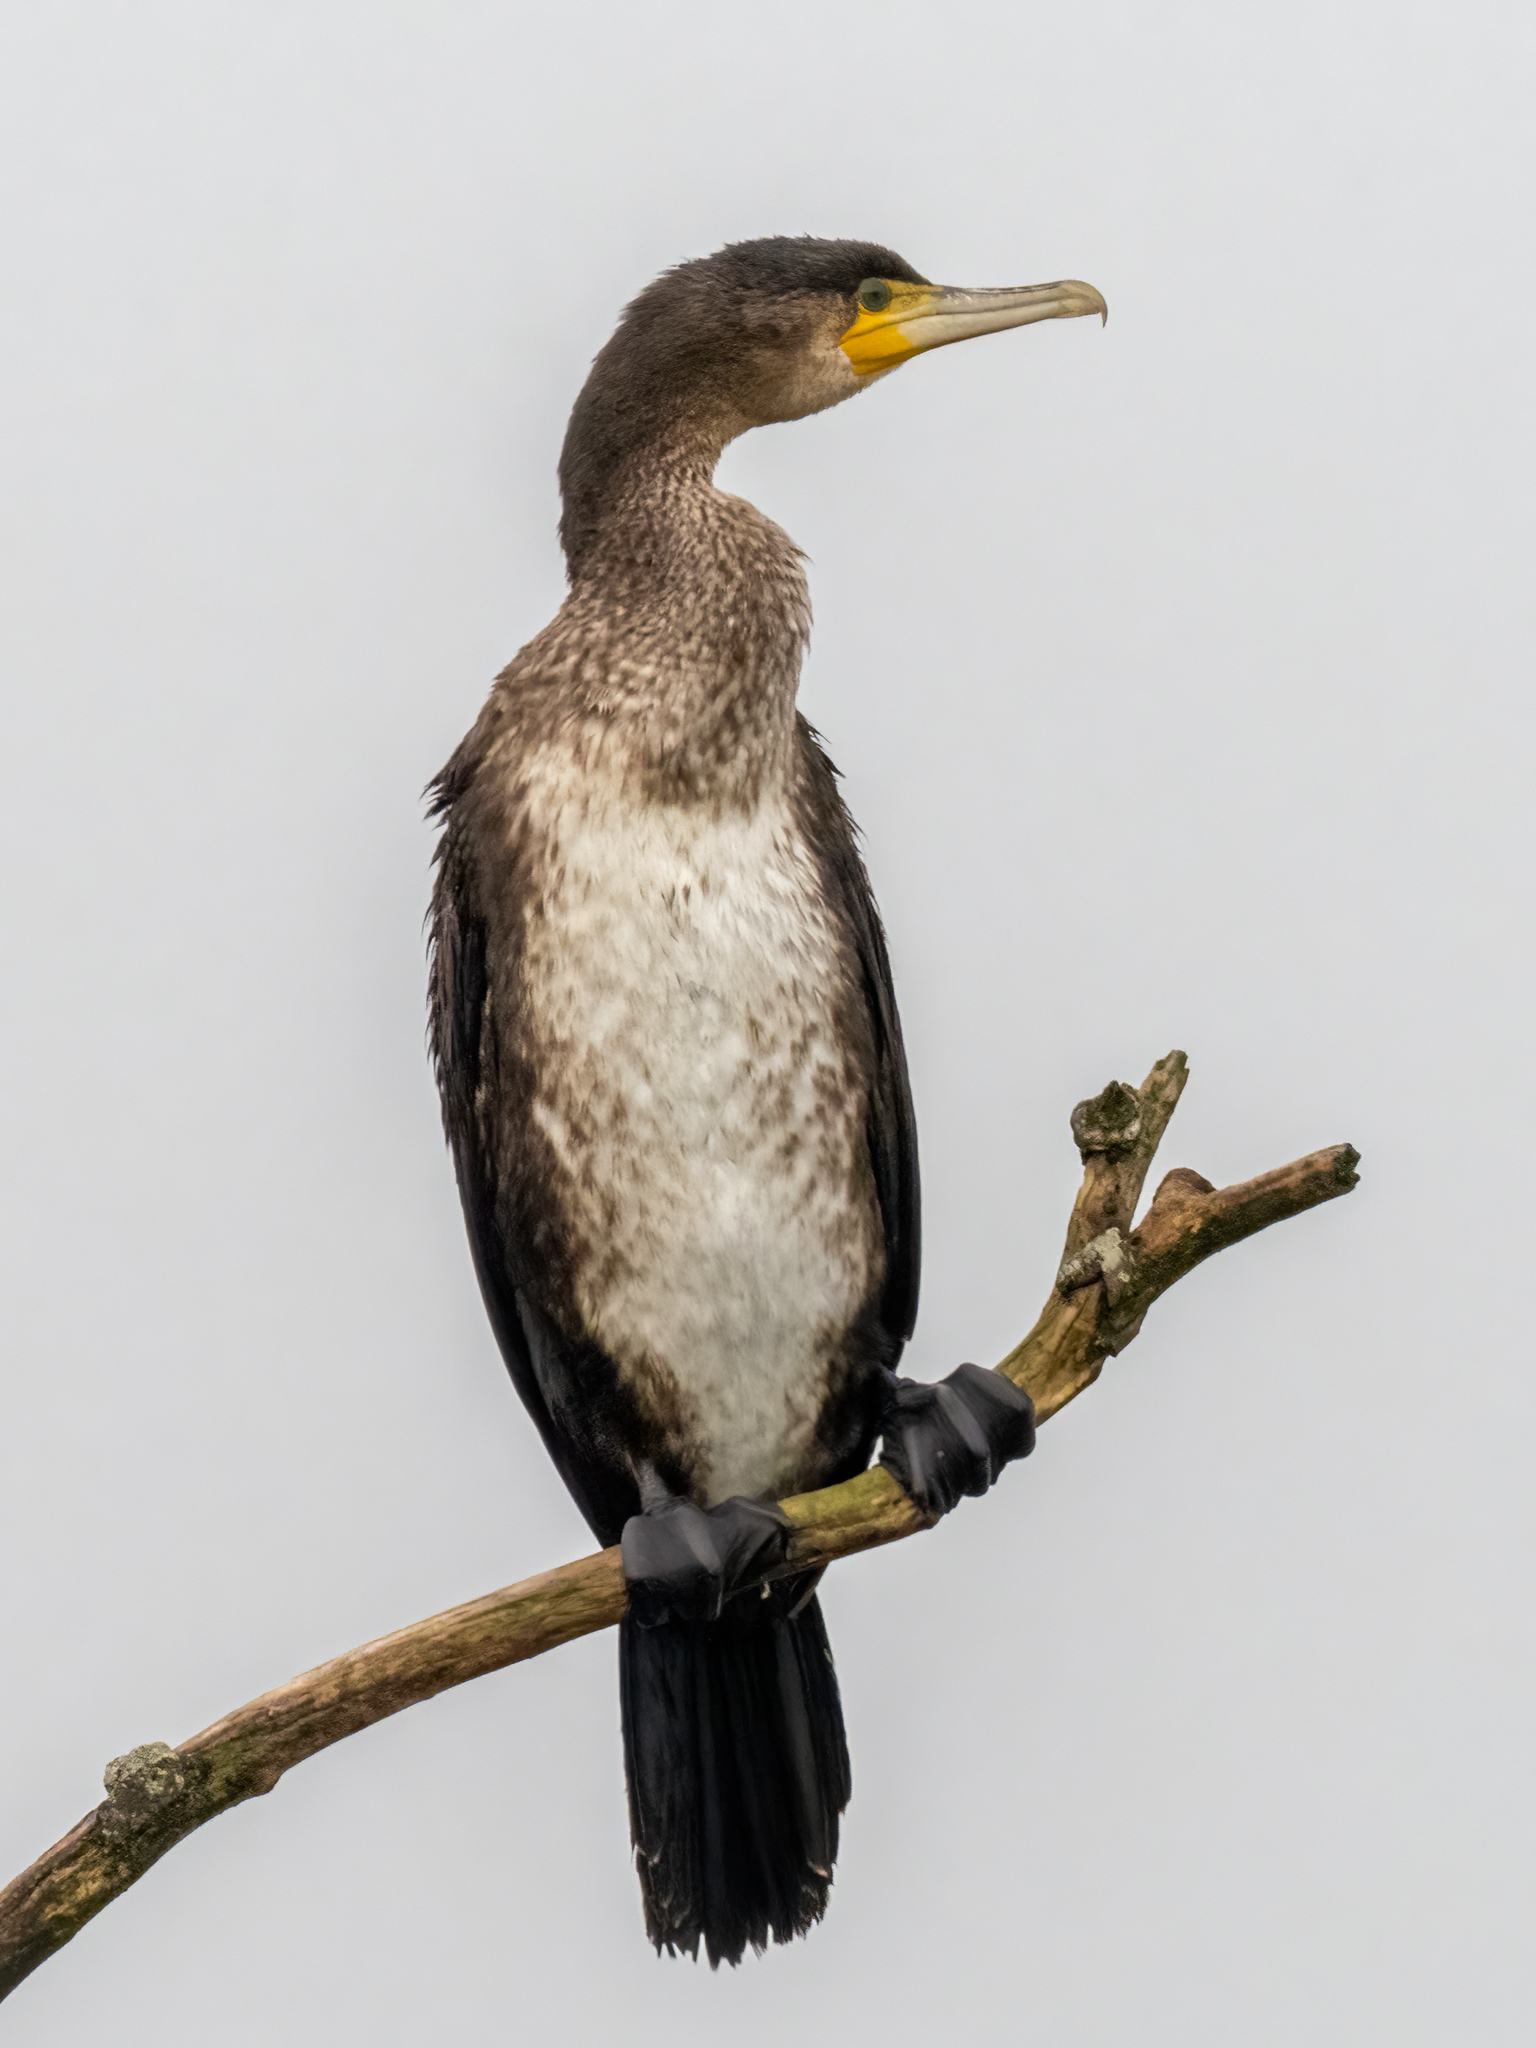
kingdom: Animalia
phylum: Chordata
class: Aves
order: Suliformes
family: Phalacrocoracidae
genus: Phalacrocorax
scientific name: Phalacrocorax carbo
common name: Great cormorant
